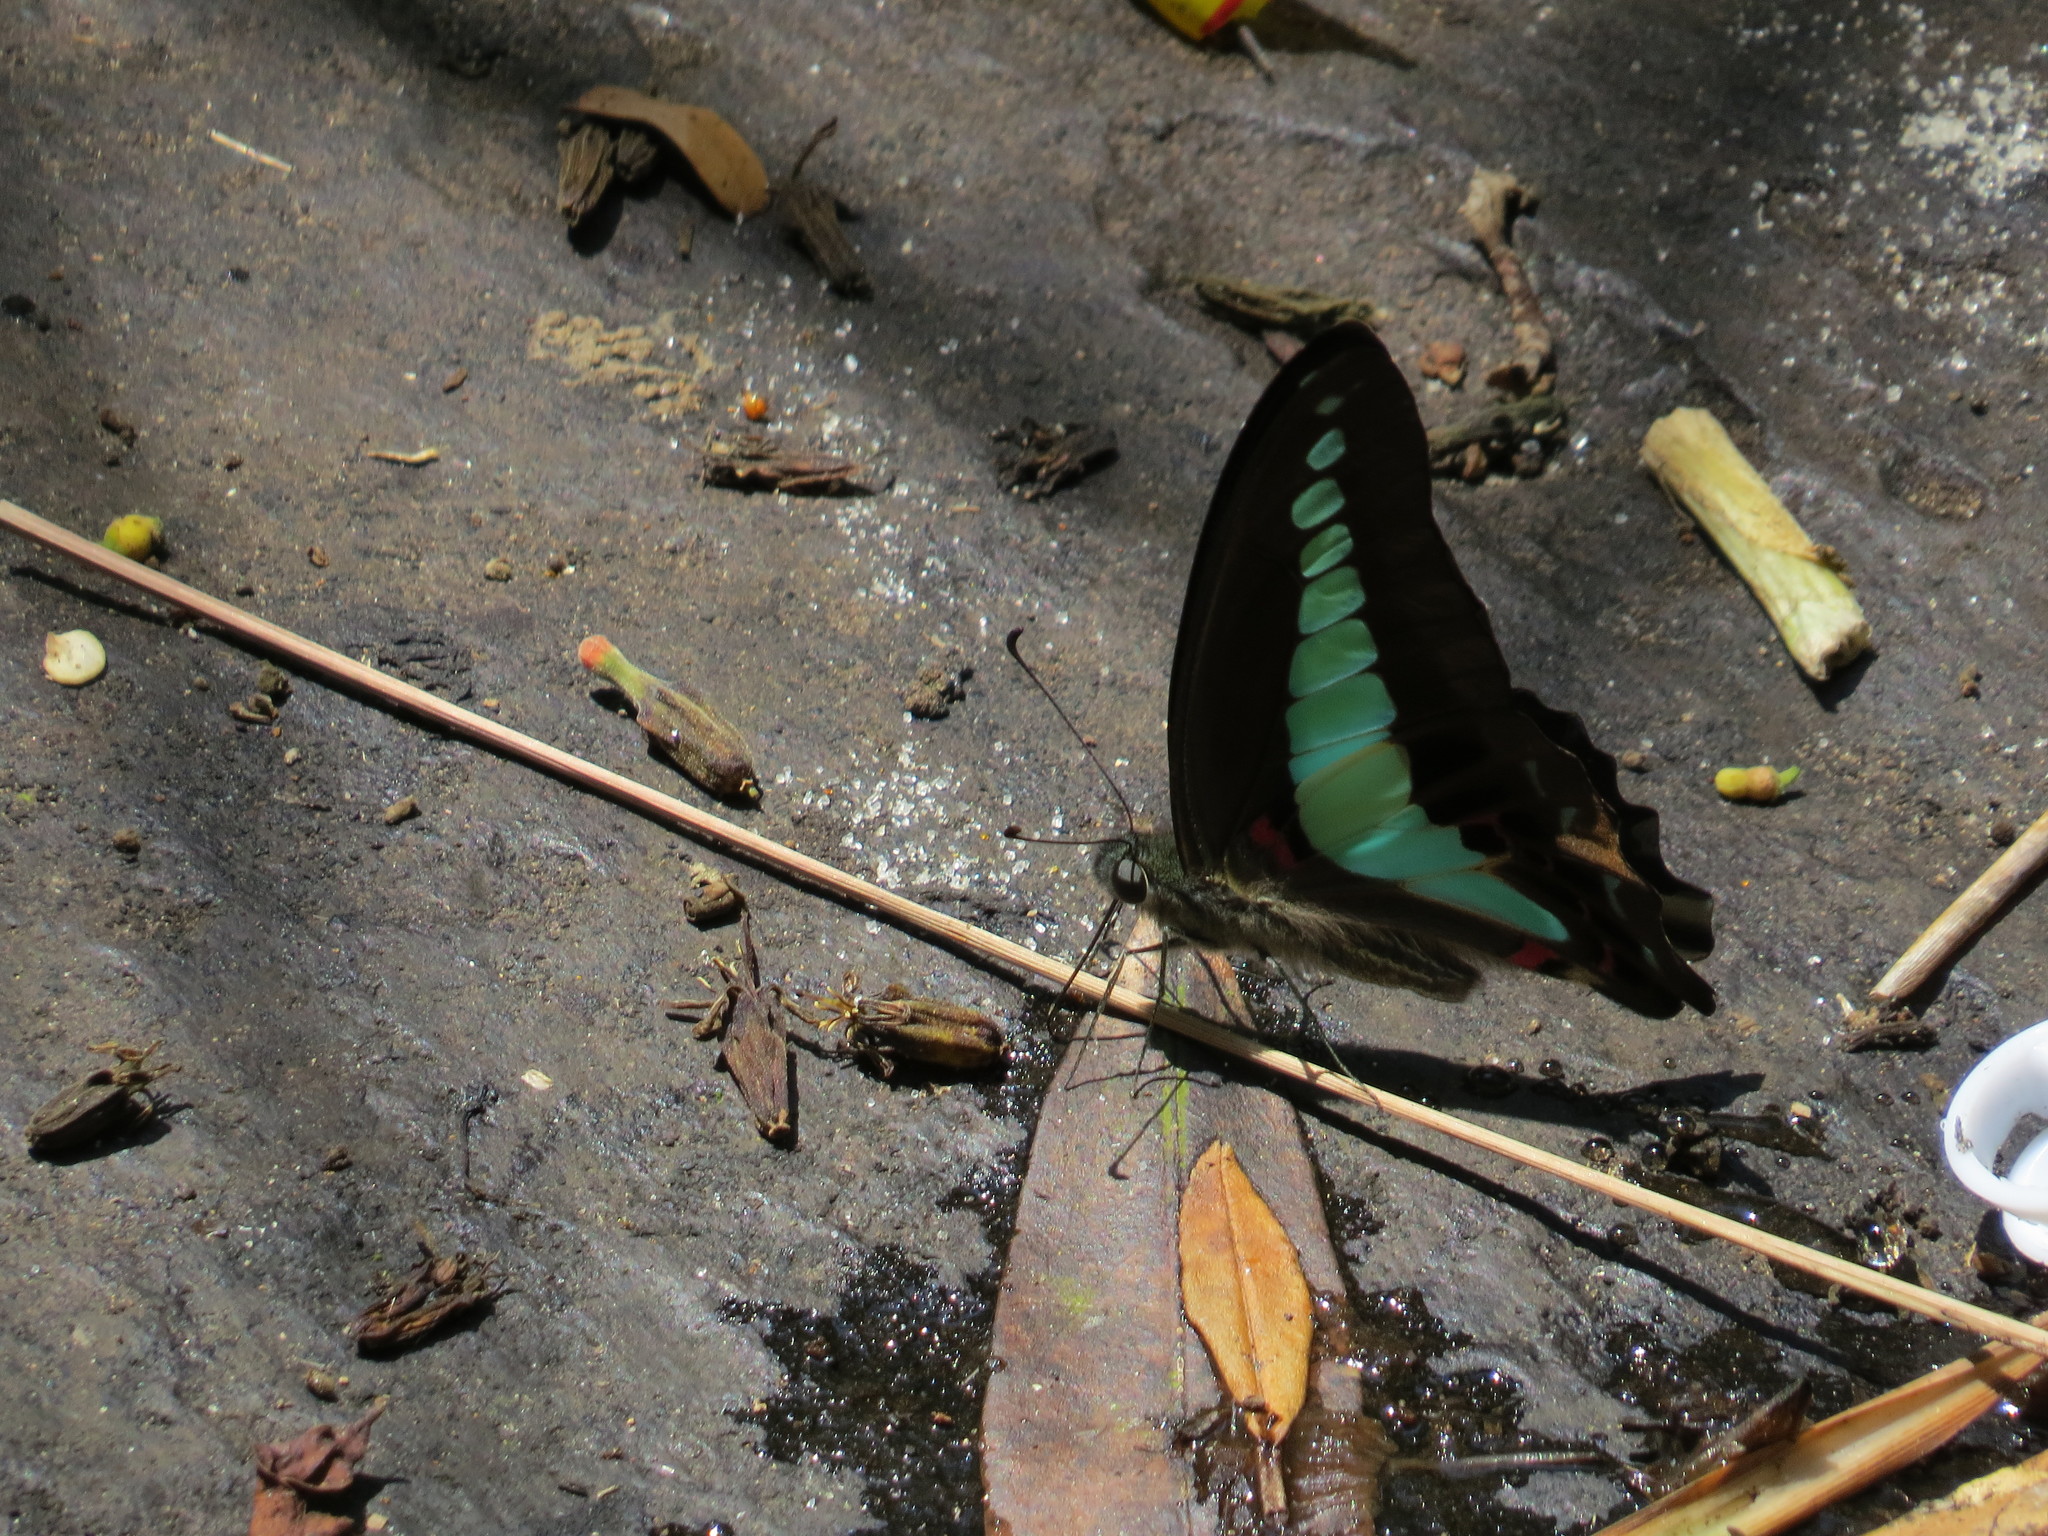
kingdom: Fungi
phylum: Ascomycota
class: Sordariomycetes
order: Microascales
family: Microascaceae
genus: Graphium
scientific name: Graphium sarpedon
